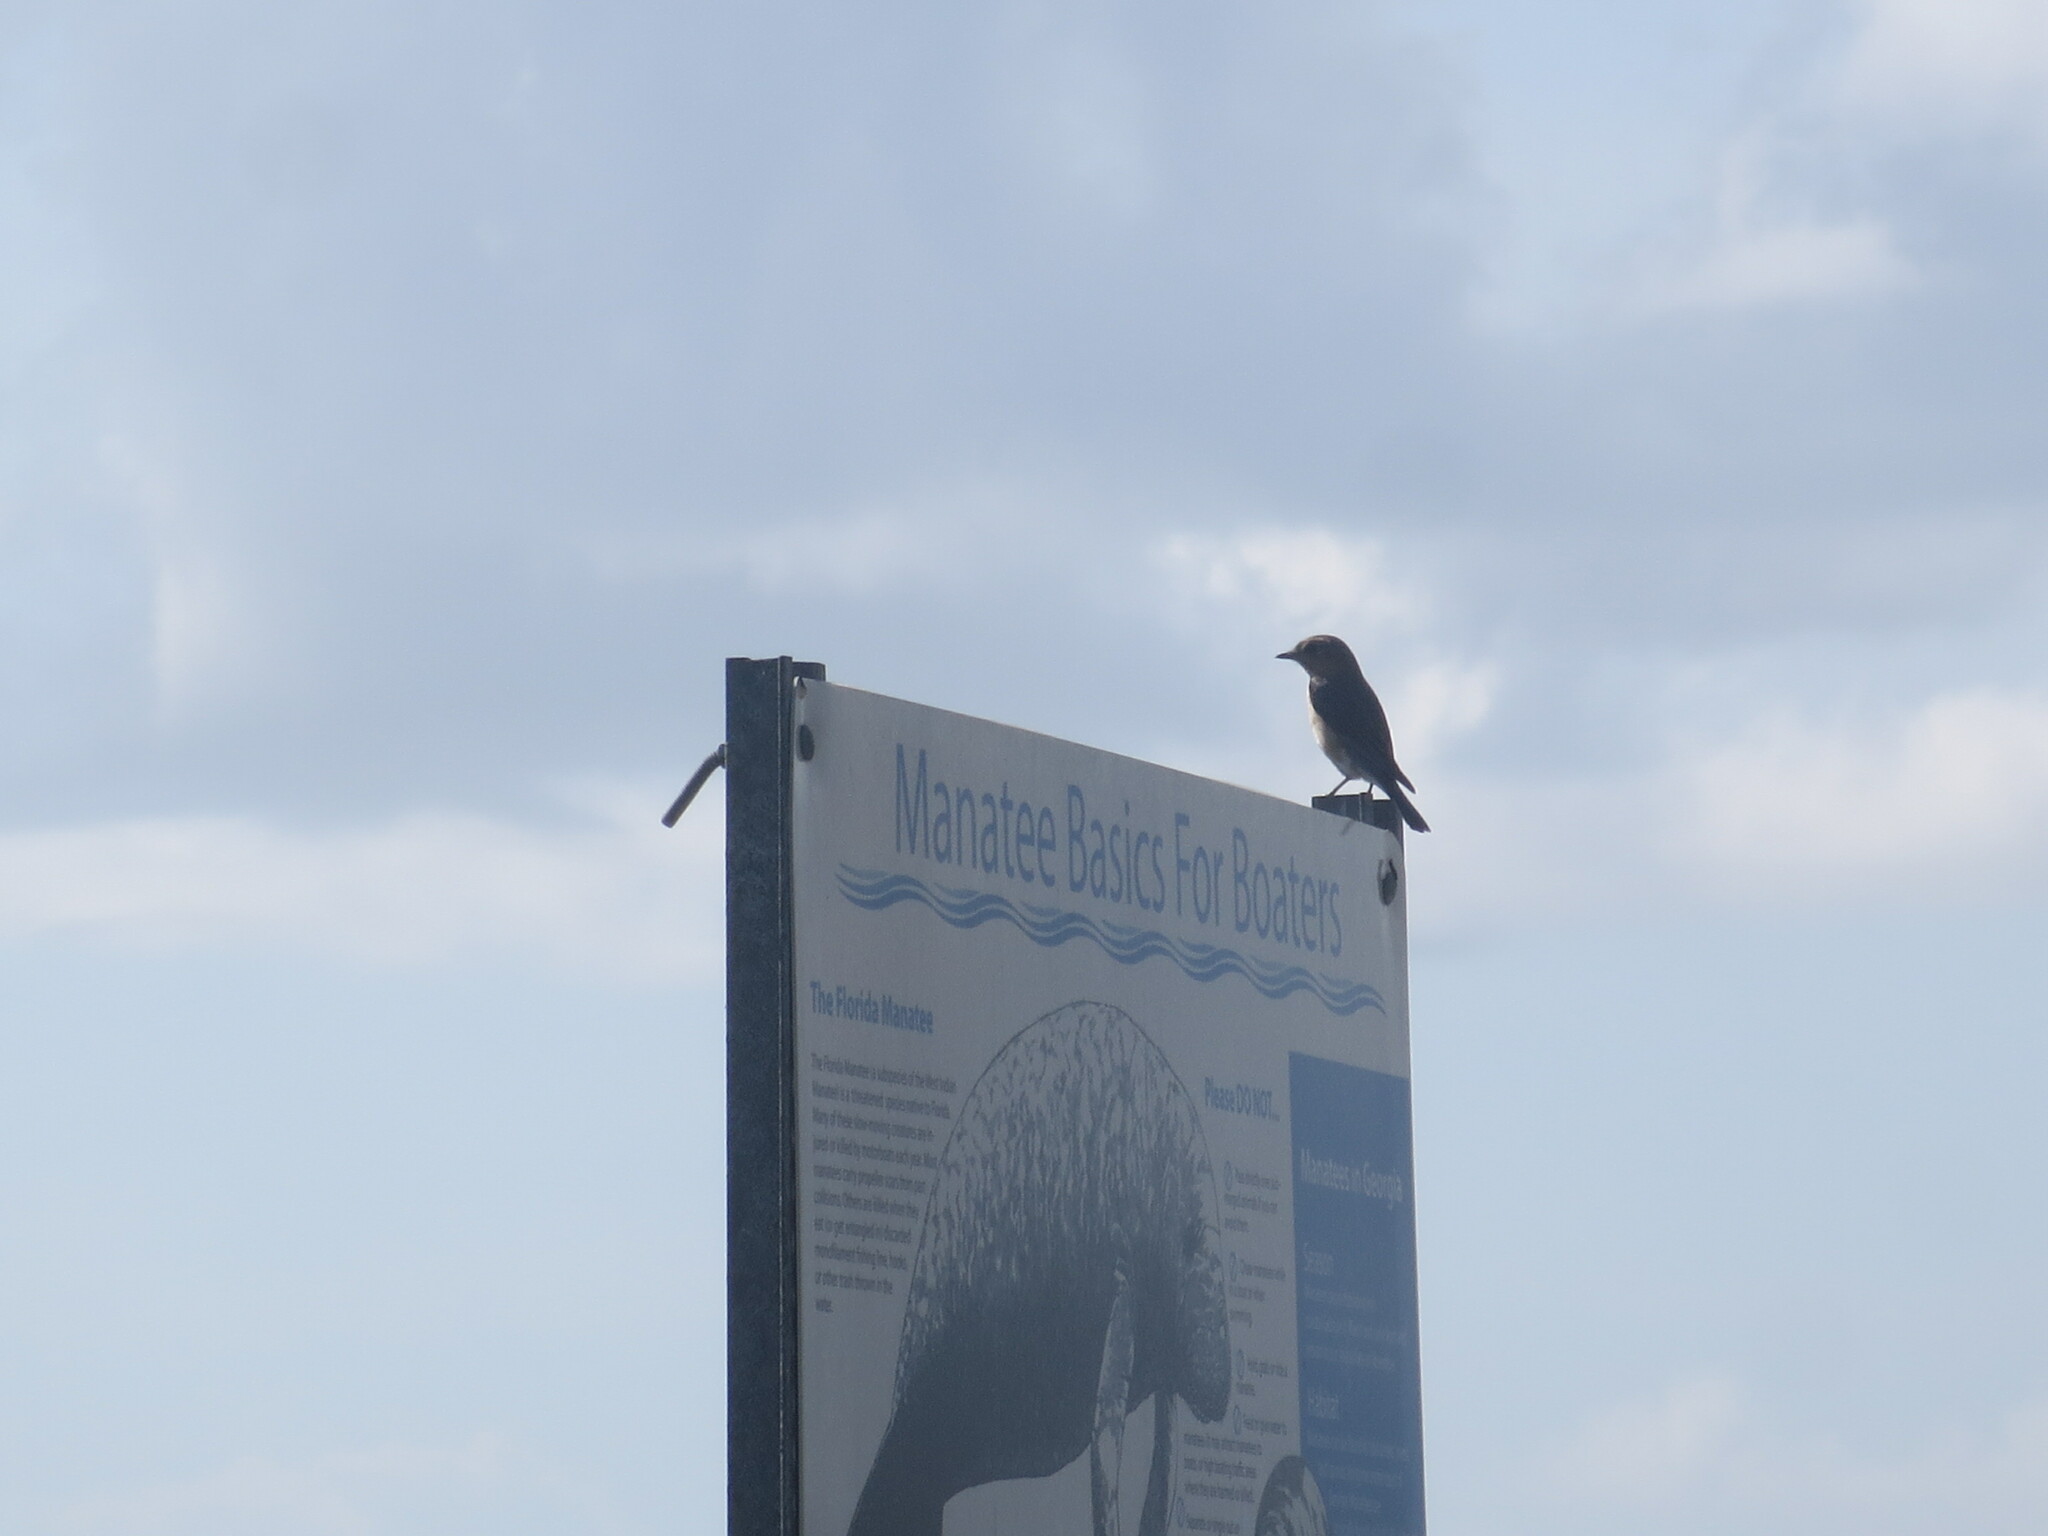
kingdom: Animalia
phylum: Chordata
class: Aves
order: Passeriformes
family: Turdidae
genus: Sialia
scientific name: Sialia sialis
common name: Eastern bluebird
